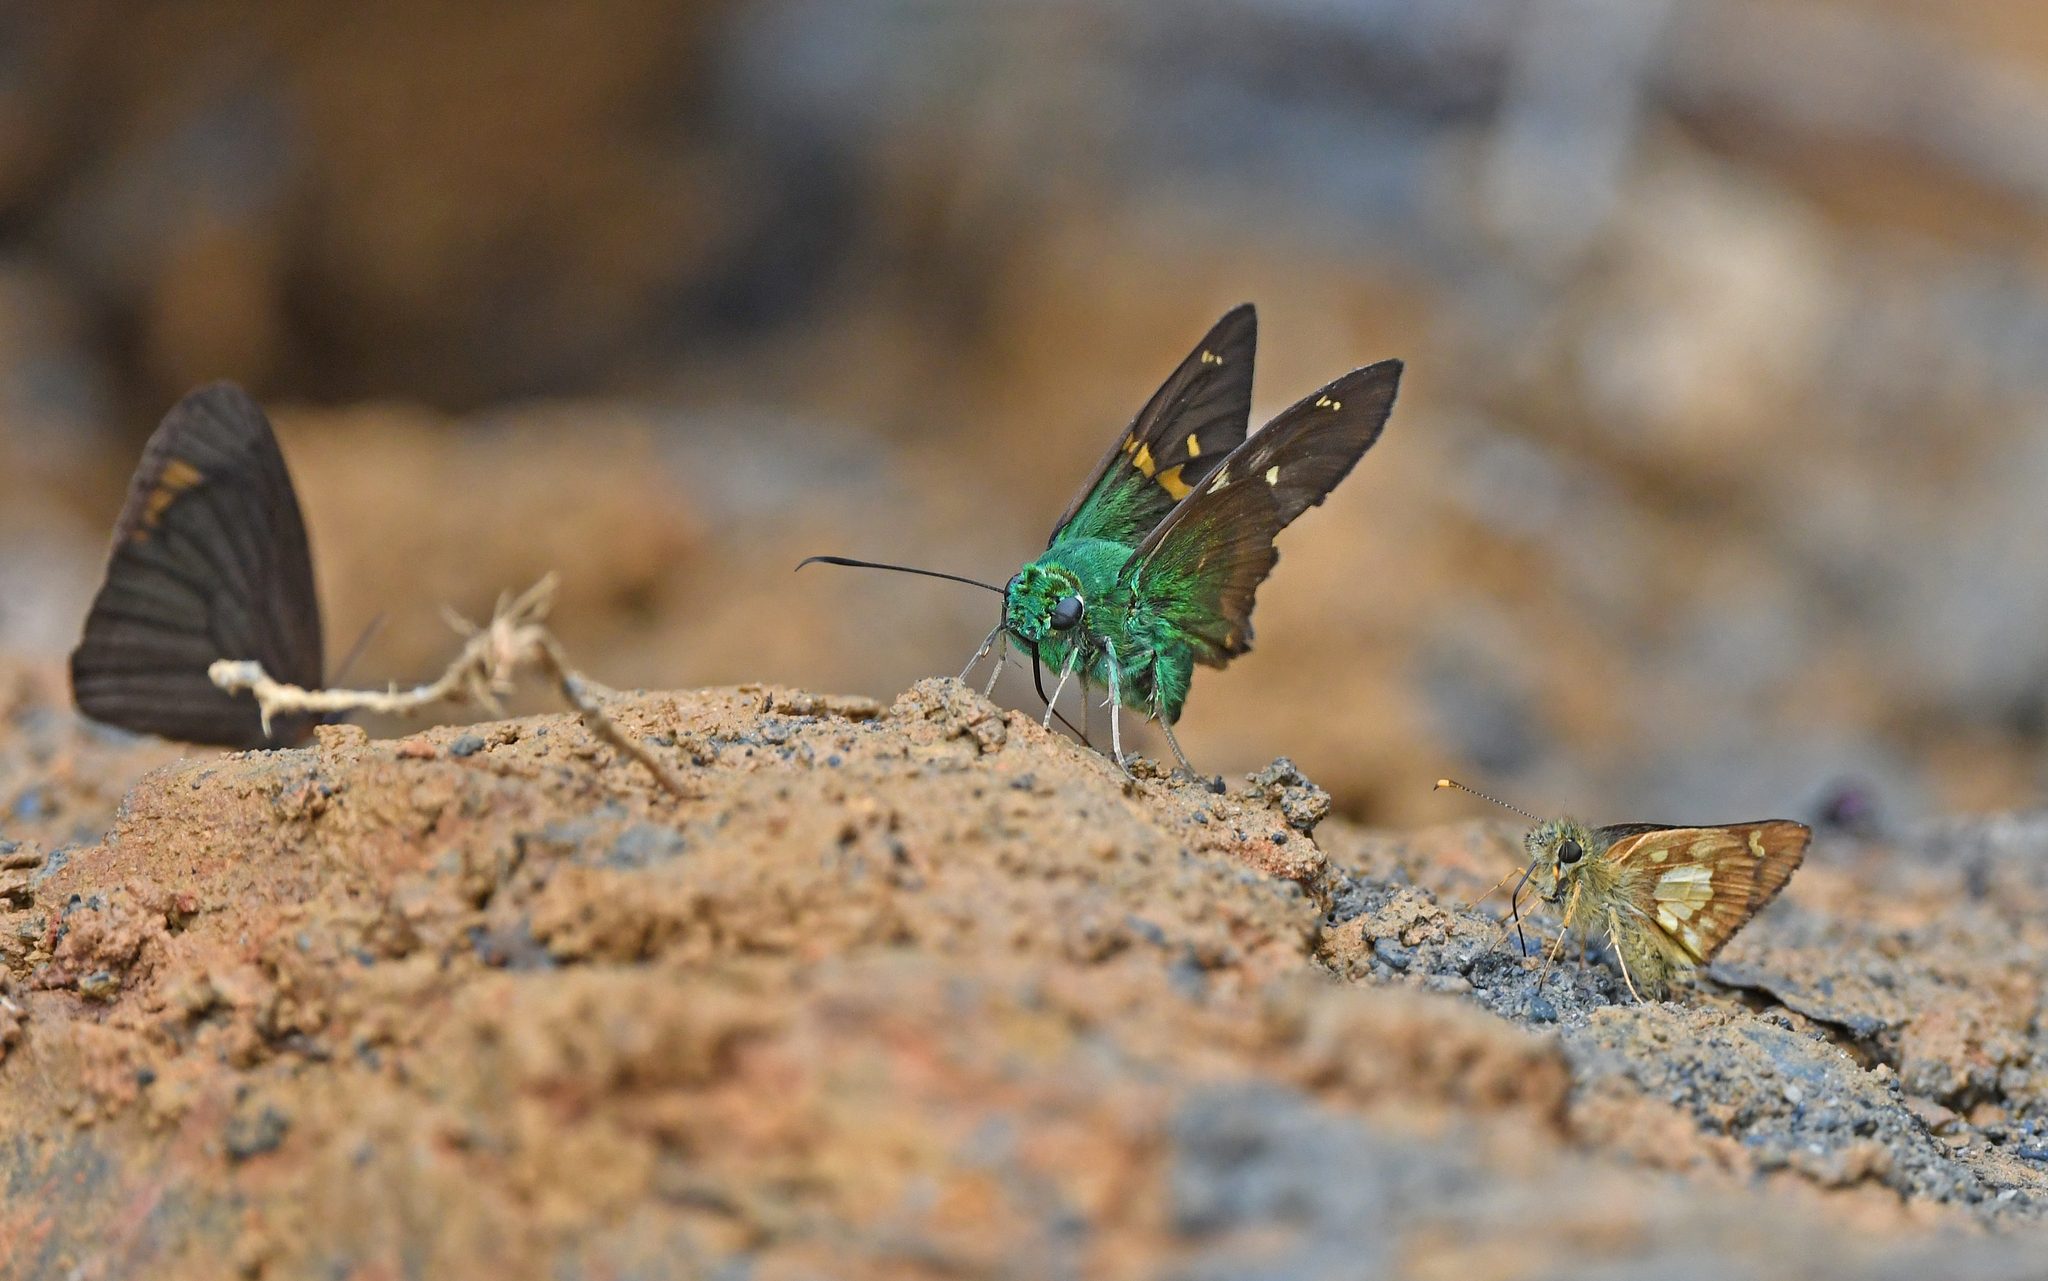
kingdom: Animalia
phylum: Arthropoda
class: Insecta
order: Lepidoptera
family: Hesperiidae
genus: Astraptes
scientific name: Astraptes talus
